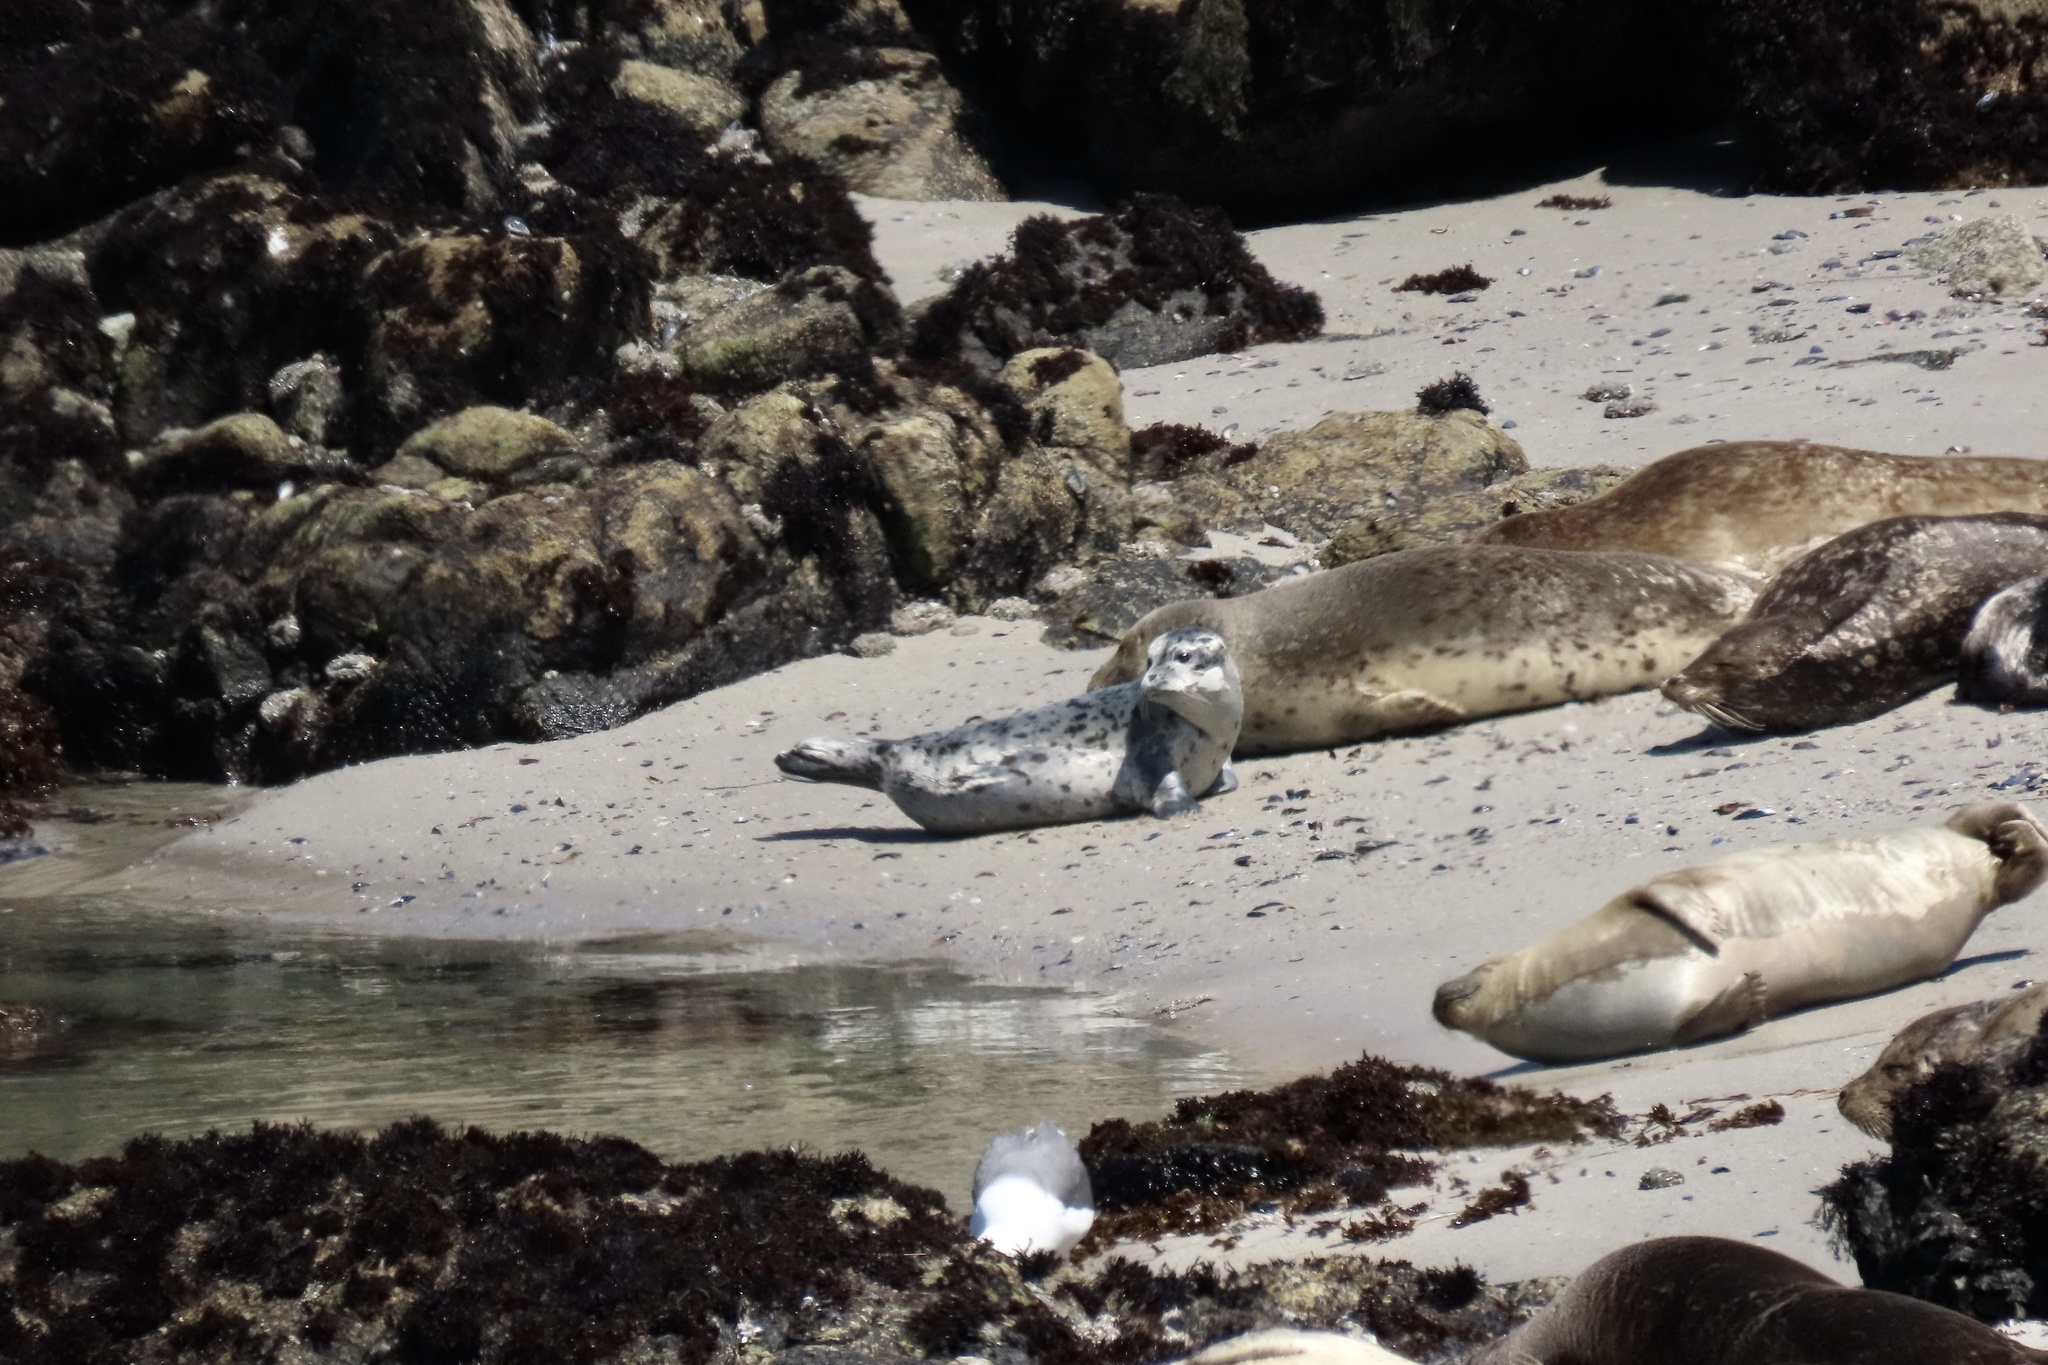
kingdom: Animalia
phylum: Chordata
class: Mammalia
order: Carnivora
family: Phocidae
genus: Phoca
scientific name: Phoca vitulina
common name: Harbor seal
